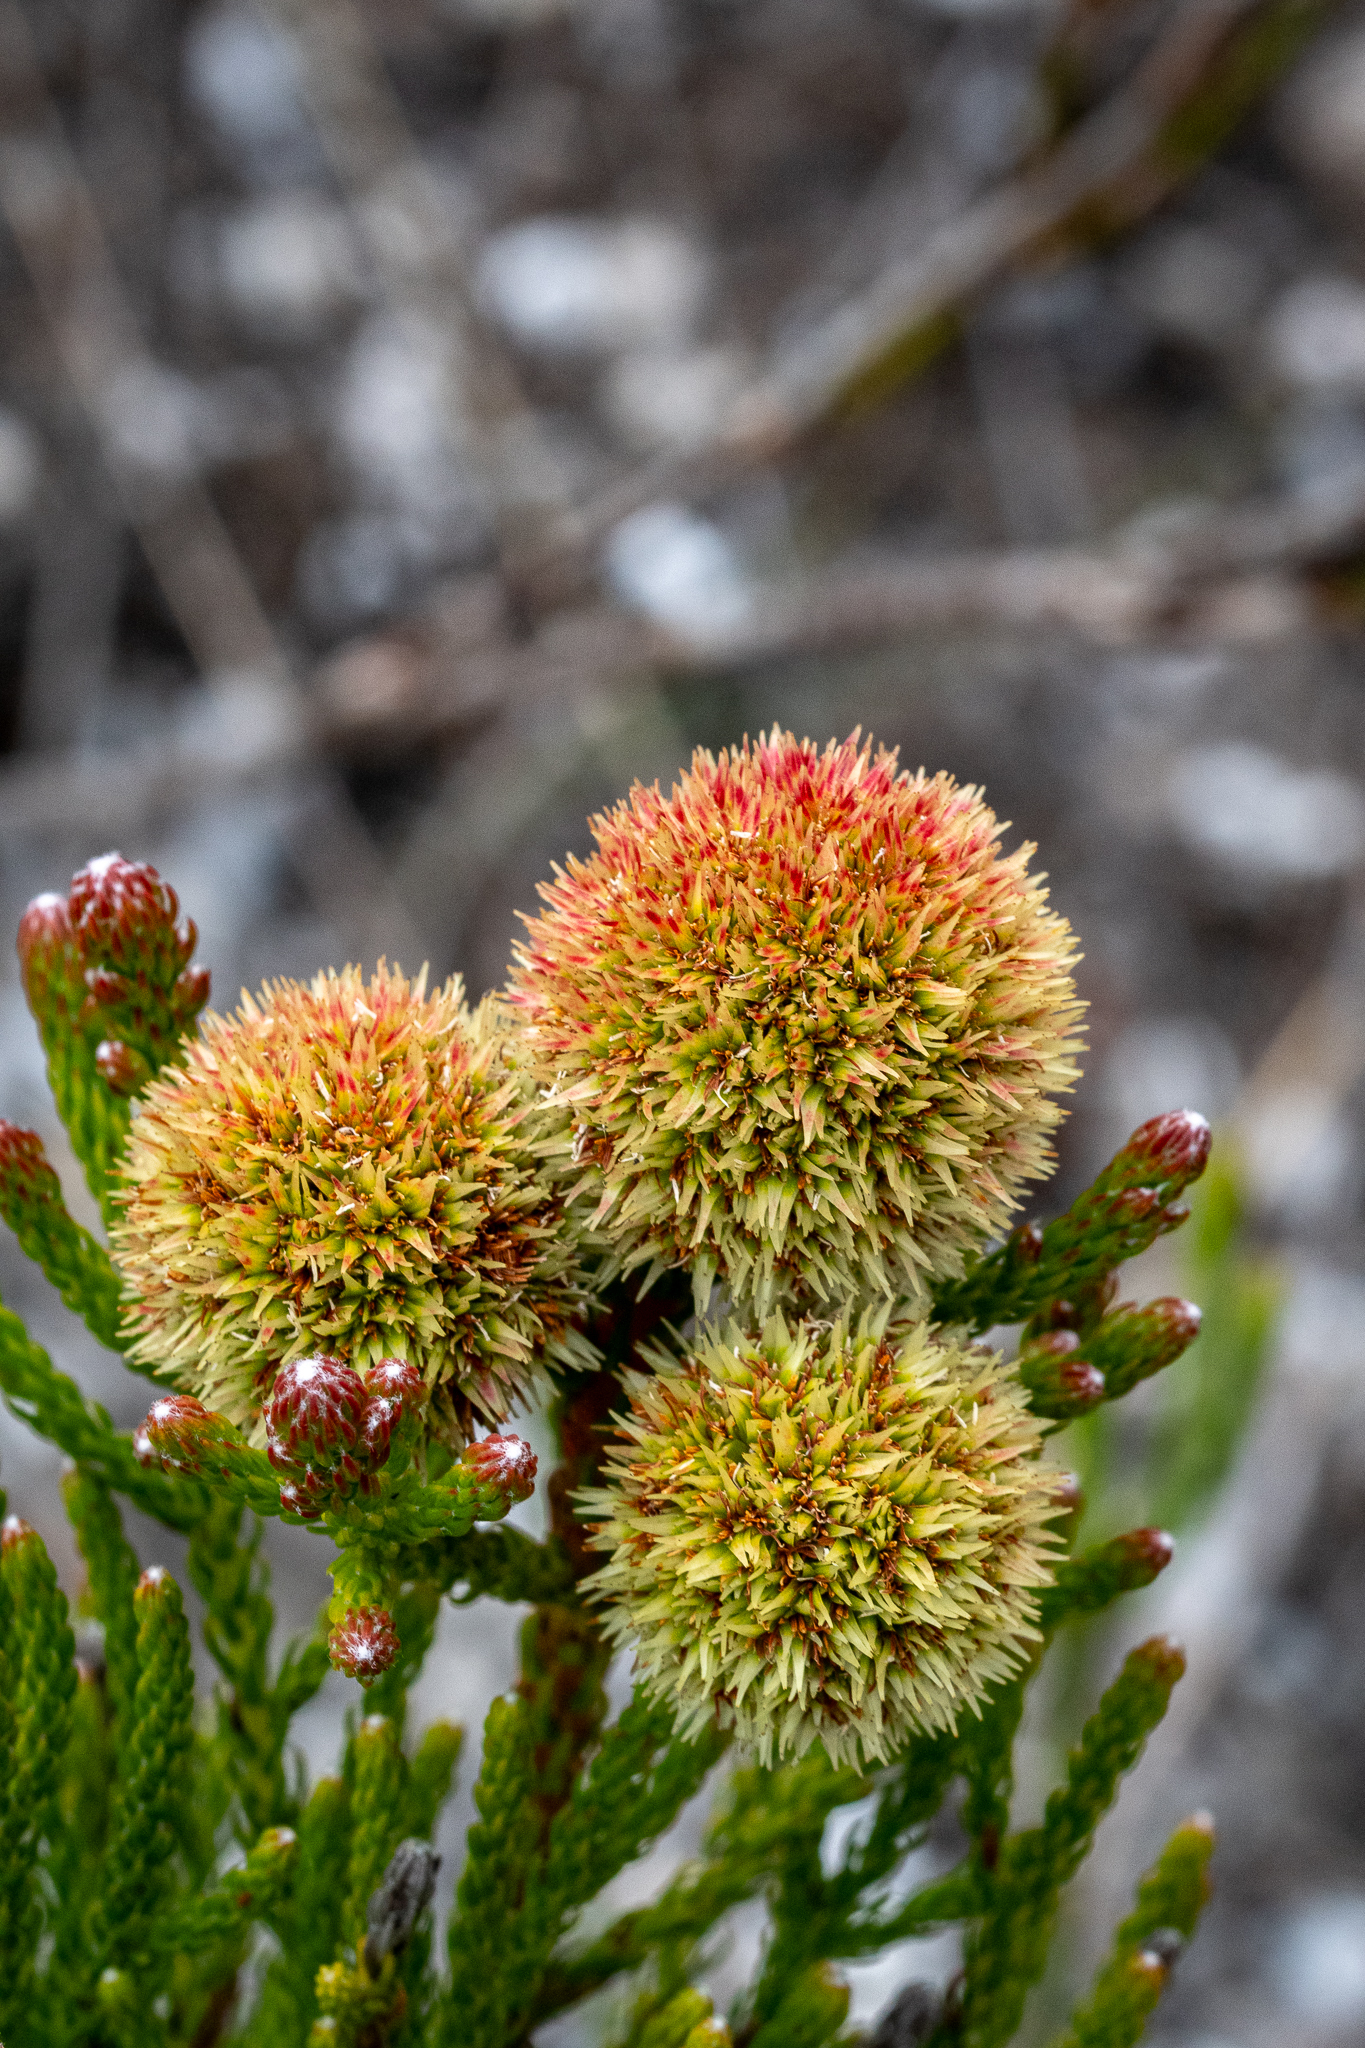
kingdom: Plantae
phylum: Tracheophyta
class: Magnoliopsida
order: Bruniales
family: Bruniaceae
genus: Brunia
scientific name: Brunia fragarioides
